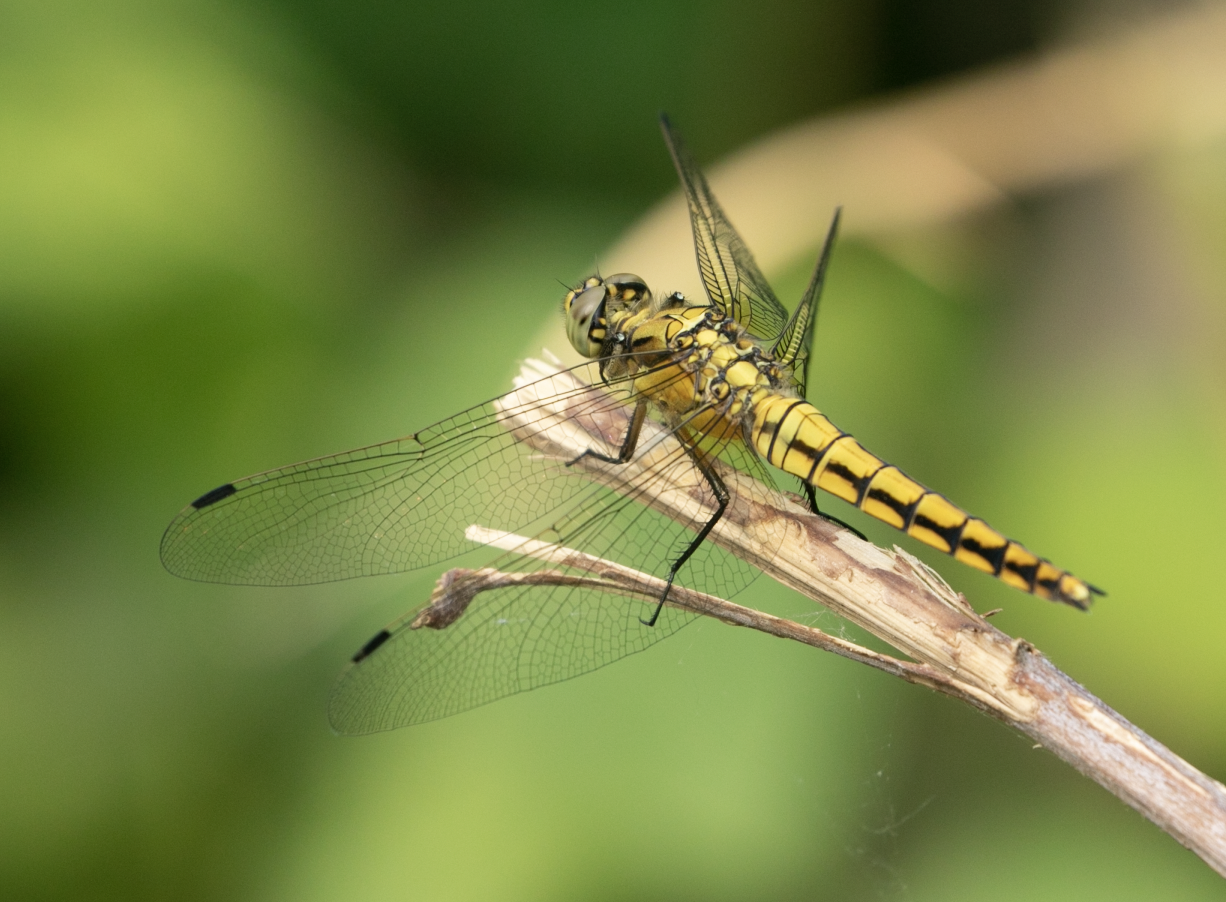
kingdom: Animalia
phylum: Arthropoda
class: Insecta
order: Odonata
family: Libellulidae
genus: Orthetrum
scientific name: Orthetrum cancellatum
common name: Black-tailed skimmer
